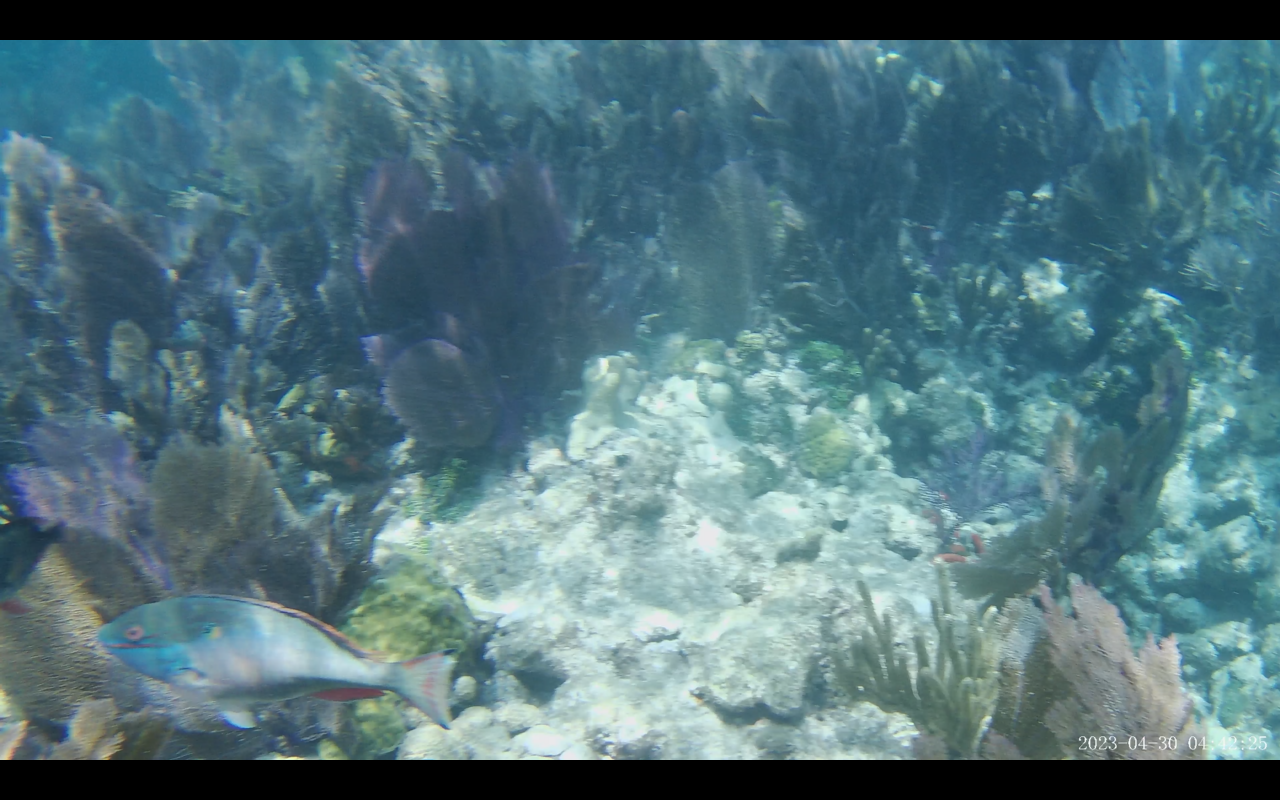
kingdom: Animalia
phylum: Chordata
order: Perciformes
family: Scaridae
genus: Sparisoma
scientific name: Sparisoma aurofrenatum
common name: Redband parrotfish
